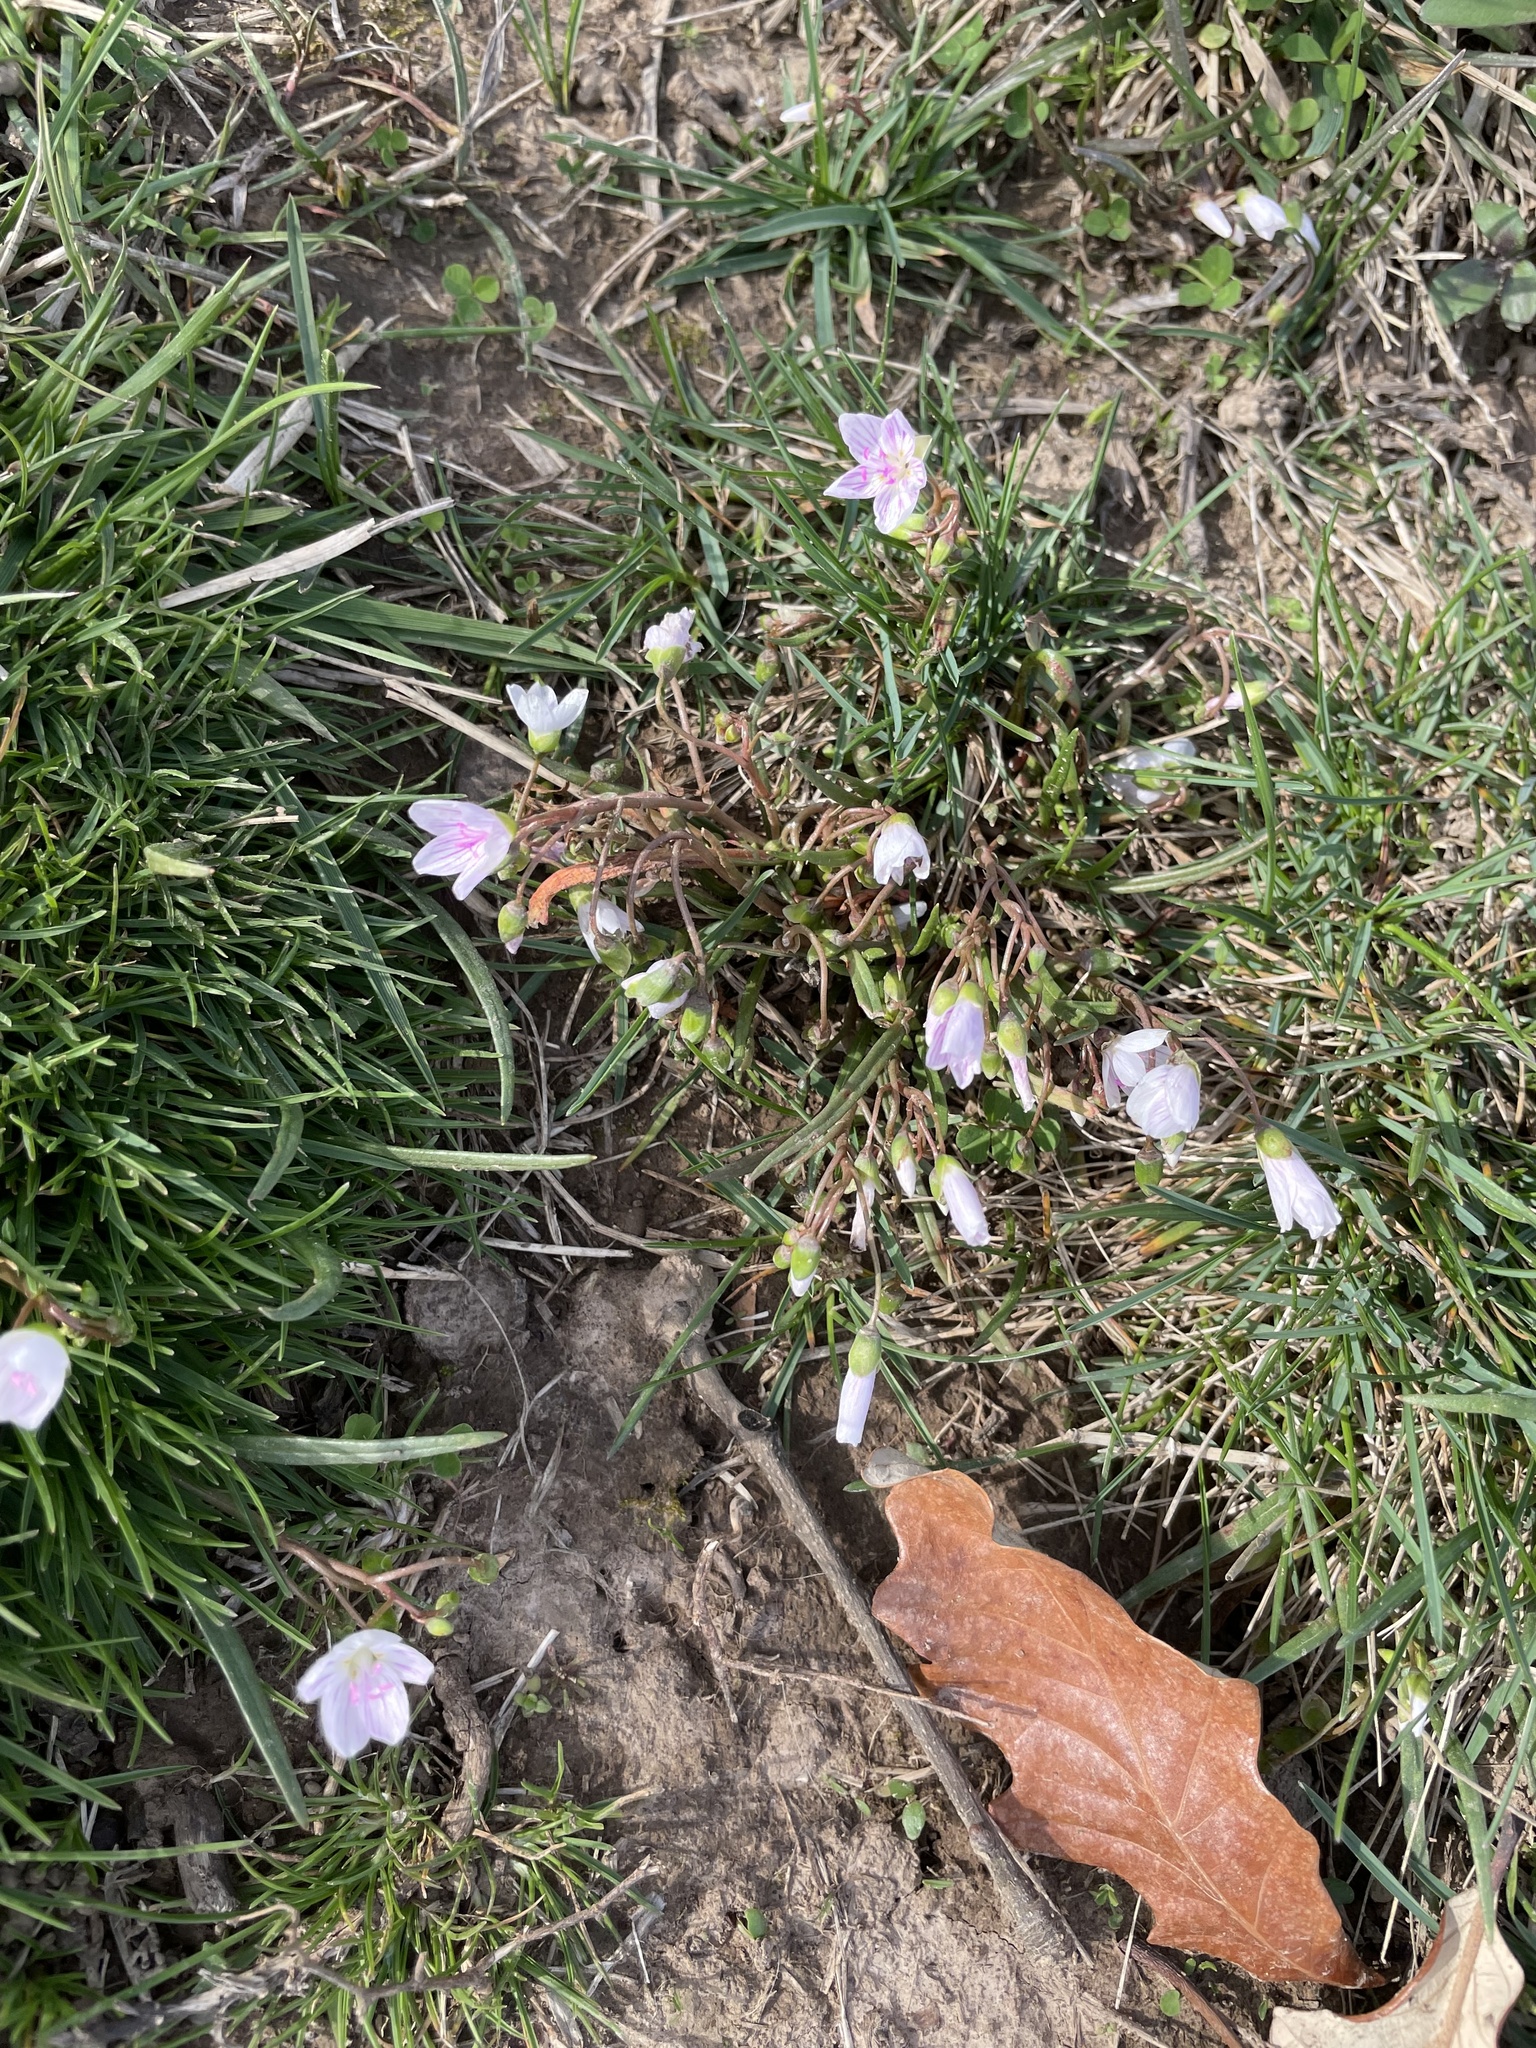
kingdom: Plantae
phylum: Tracheophyta
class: Magnoliopsida
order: Caryophyllales
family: Montiaceae
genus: Claytonia
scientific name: Claytonia virginica
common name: Virginia springbeauty
